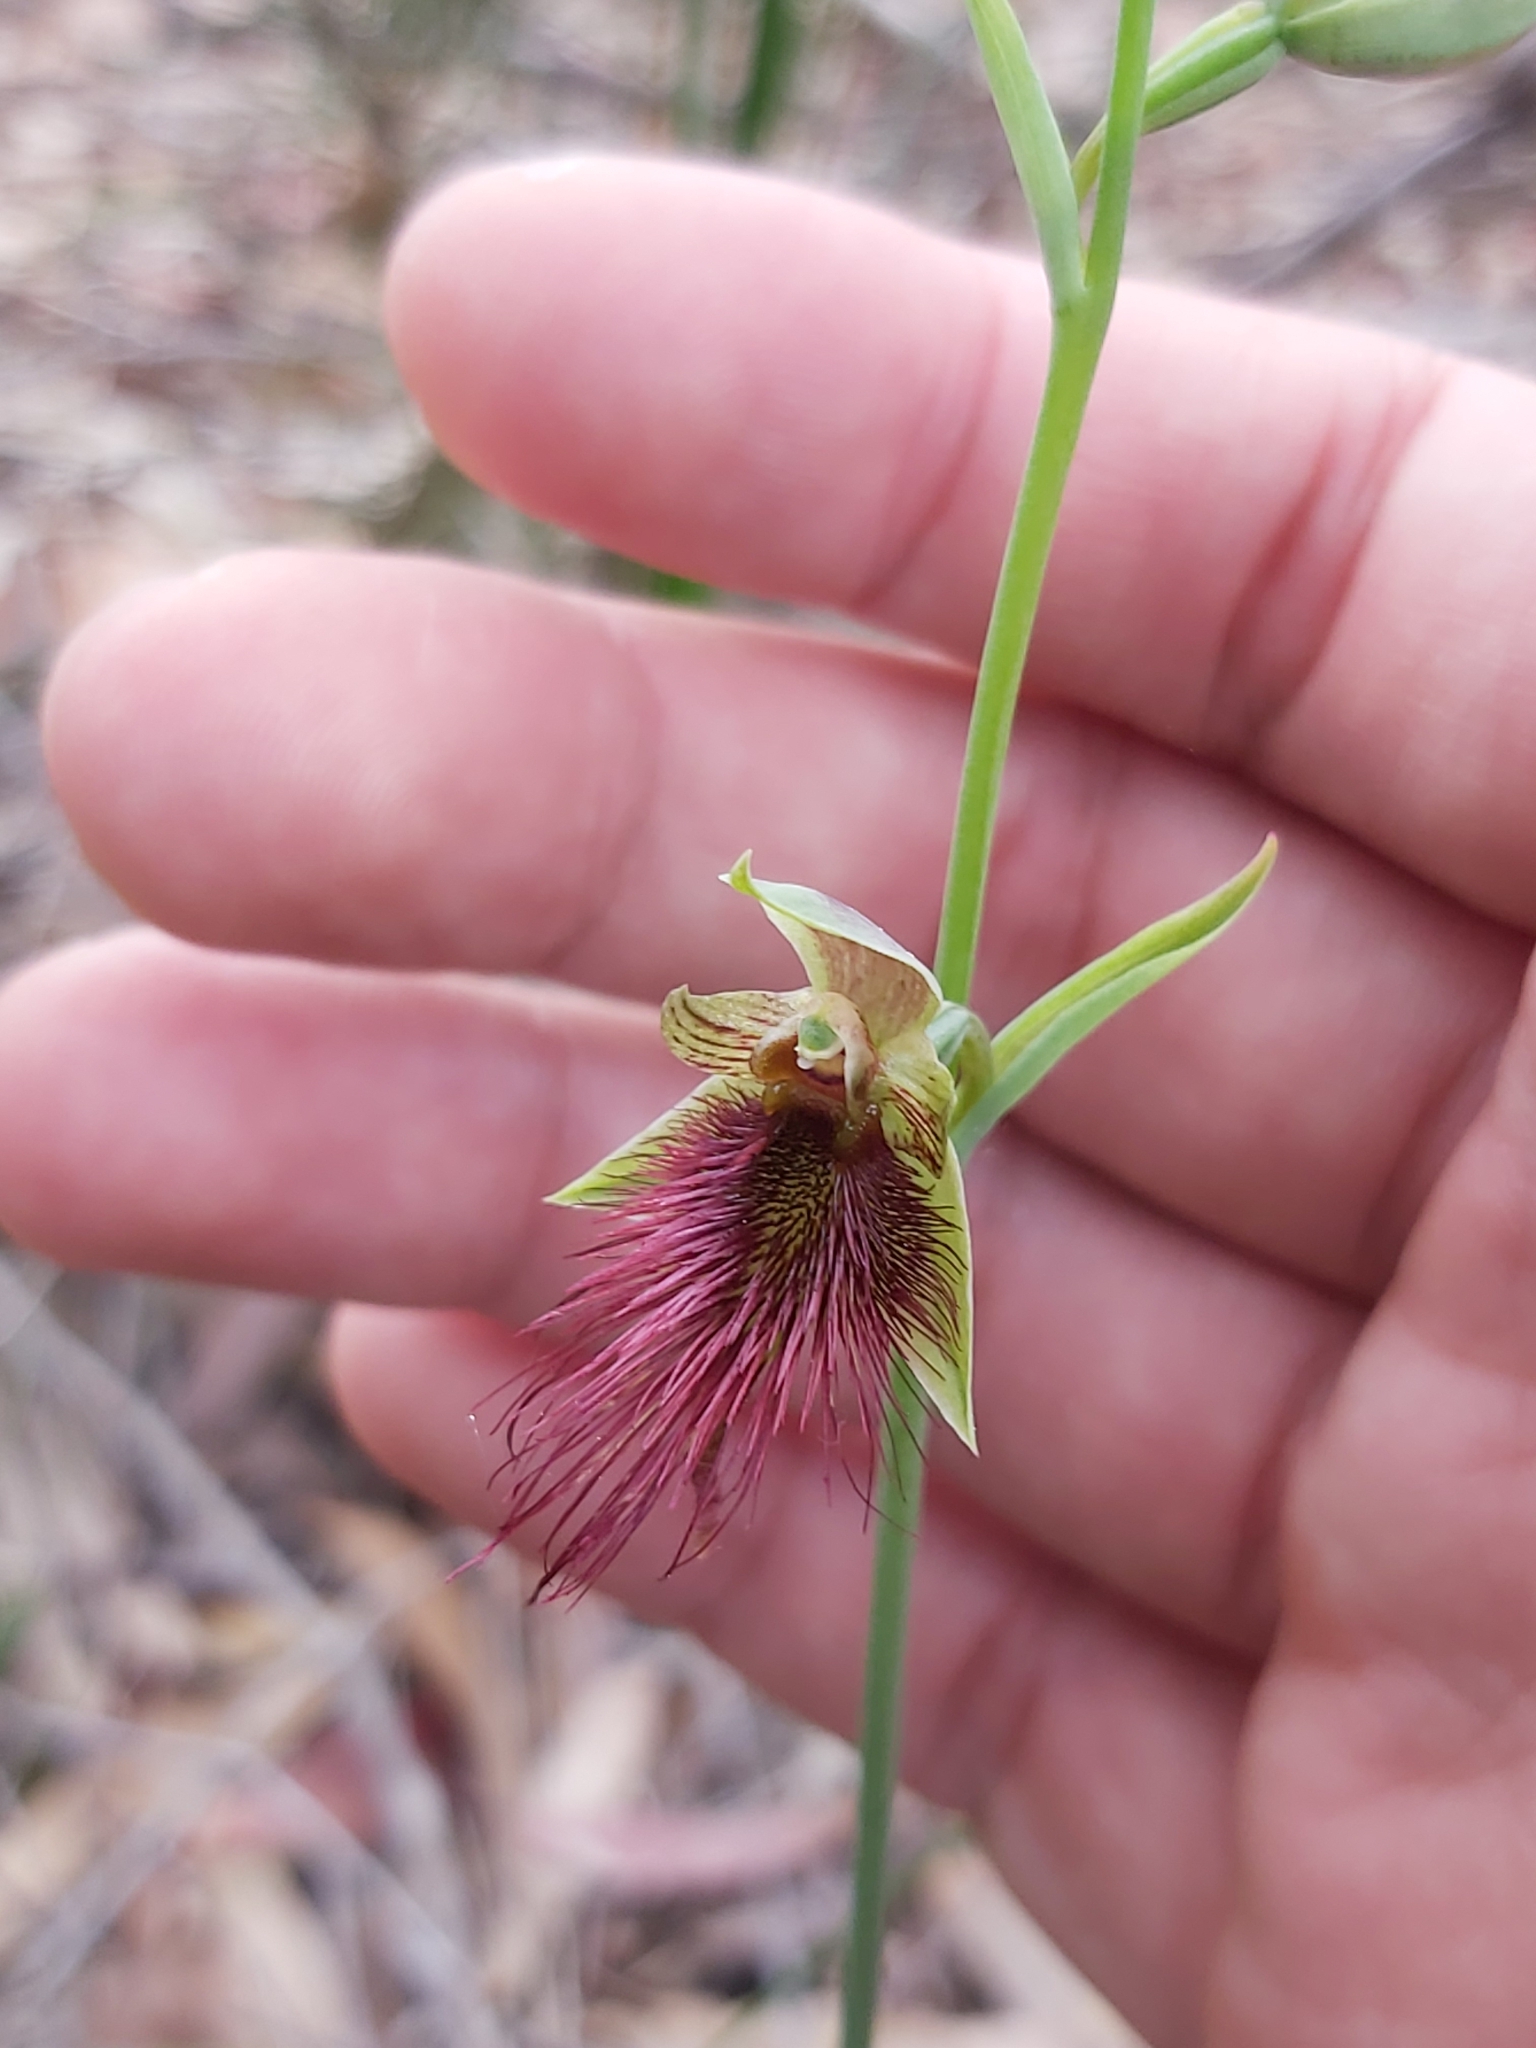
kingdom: Plantae
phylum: Tracheophyta
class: Liliopsida
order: Asparagales
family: Orchidaceae
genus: Calochilus
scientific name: Calochilus paludosus
